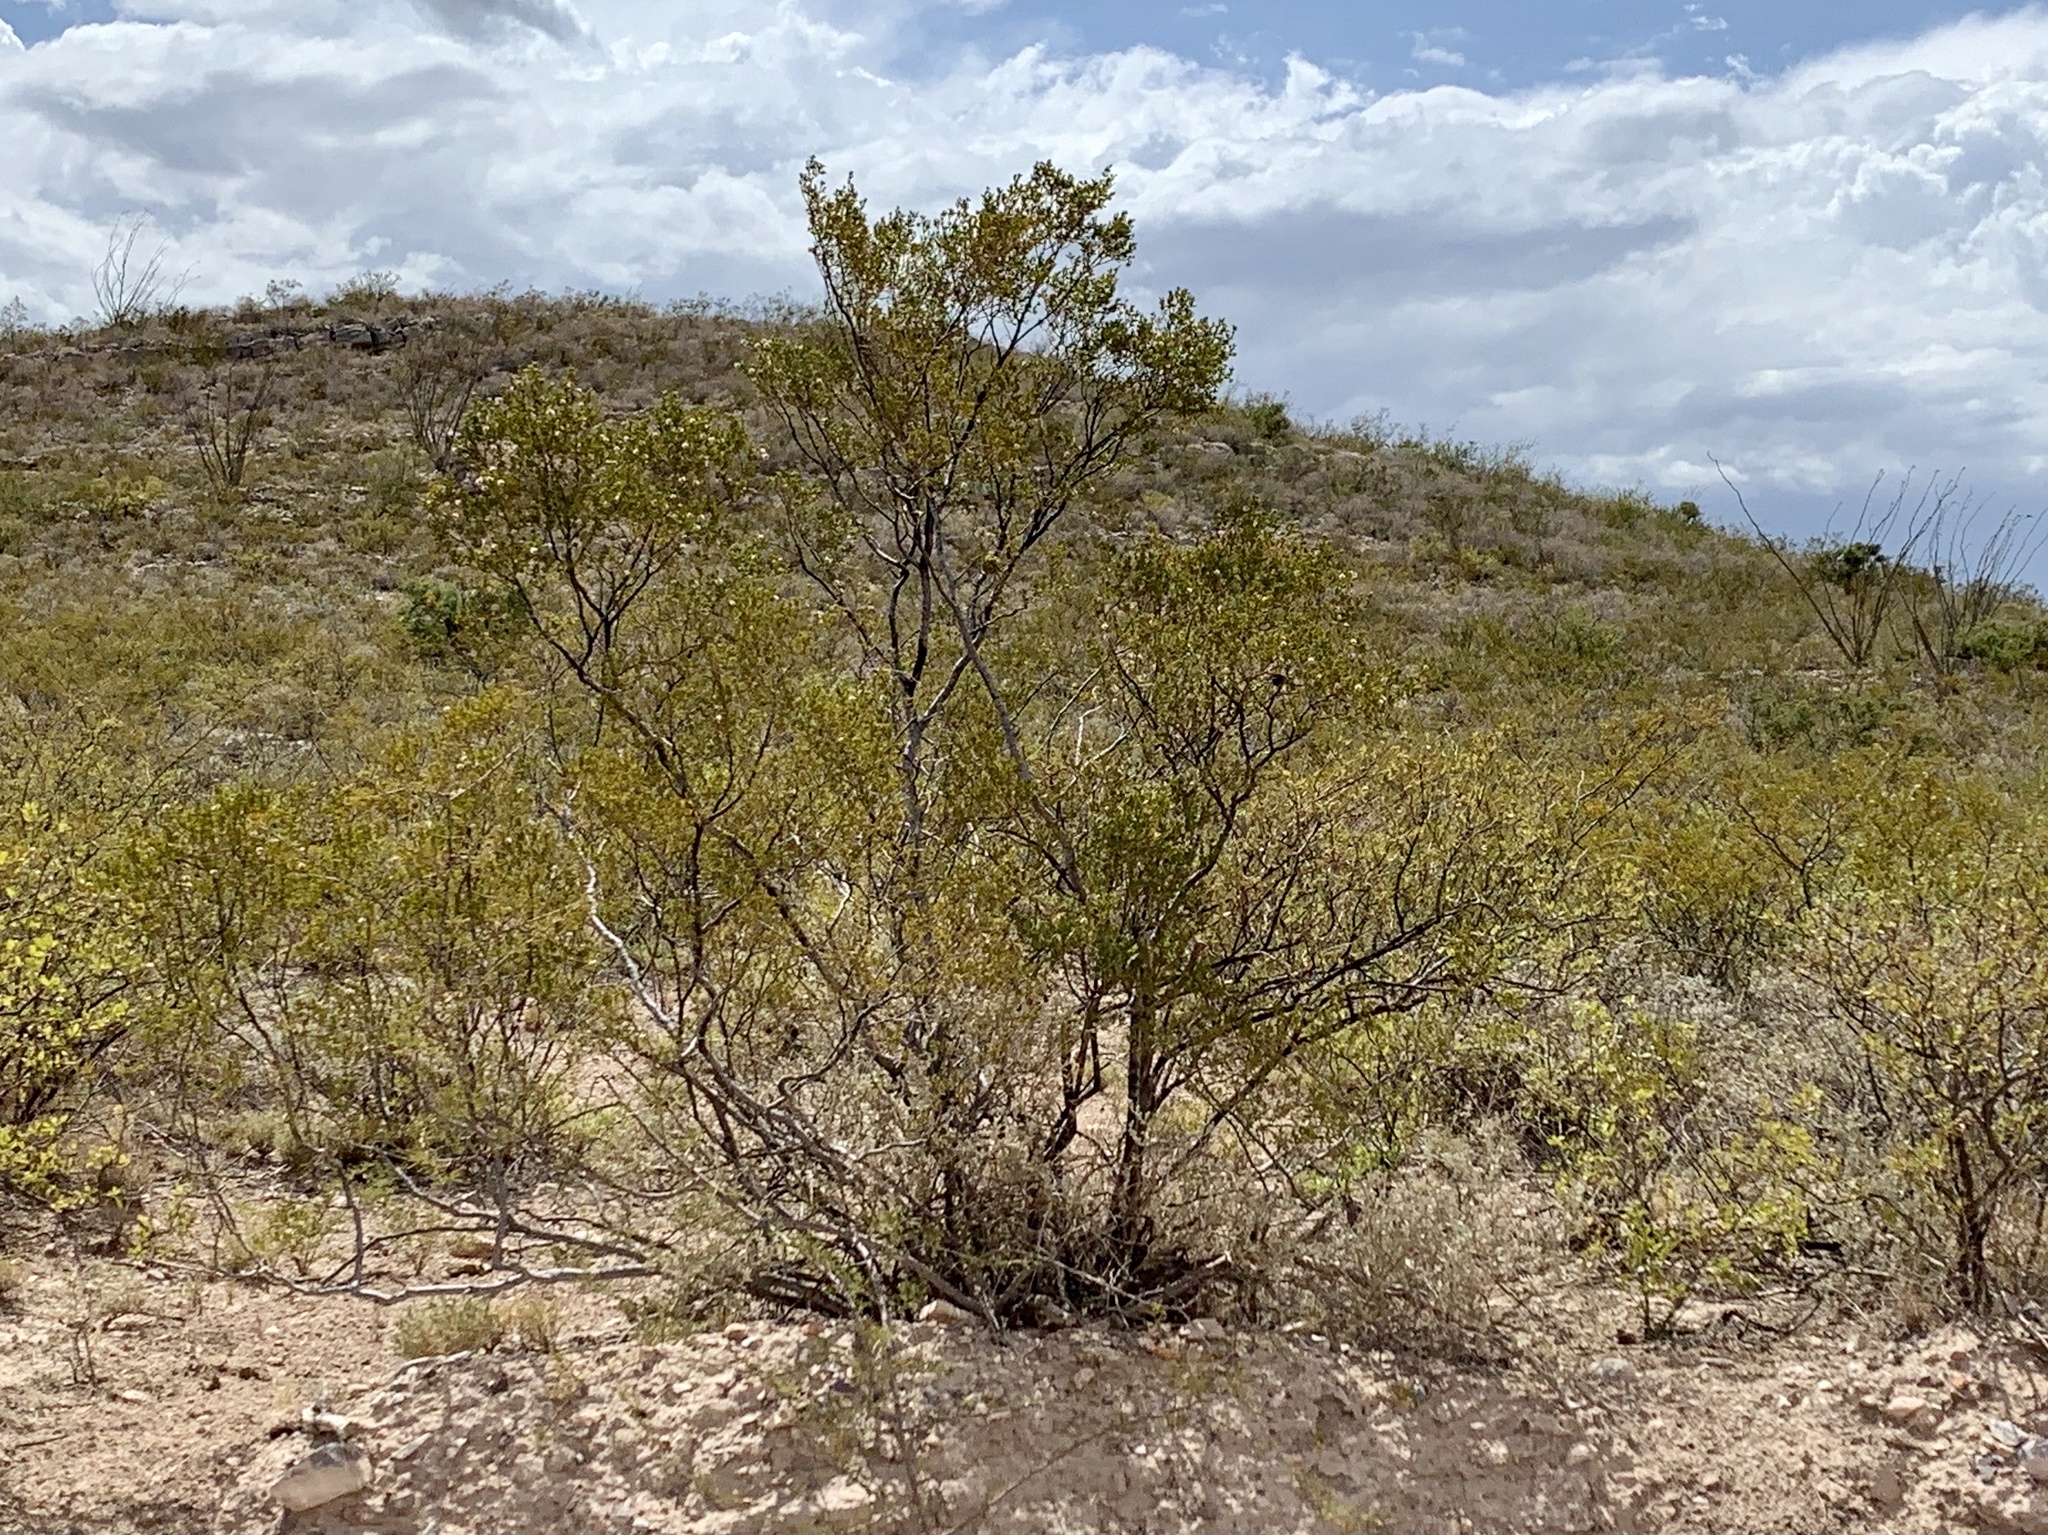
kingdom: Plantae
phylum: Tracheophyta
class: Magnoliopsida
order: Zygophyllales
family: Zygophyllaceae
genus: Larrea
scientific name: Larrea tridentata
